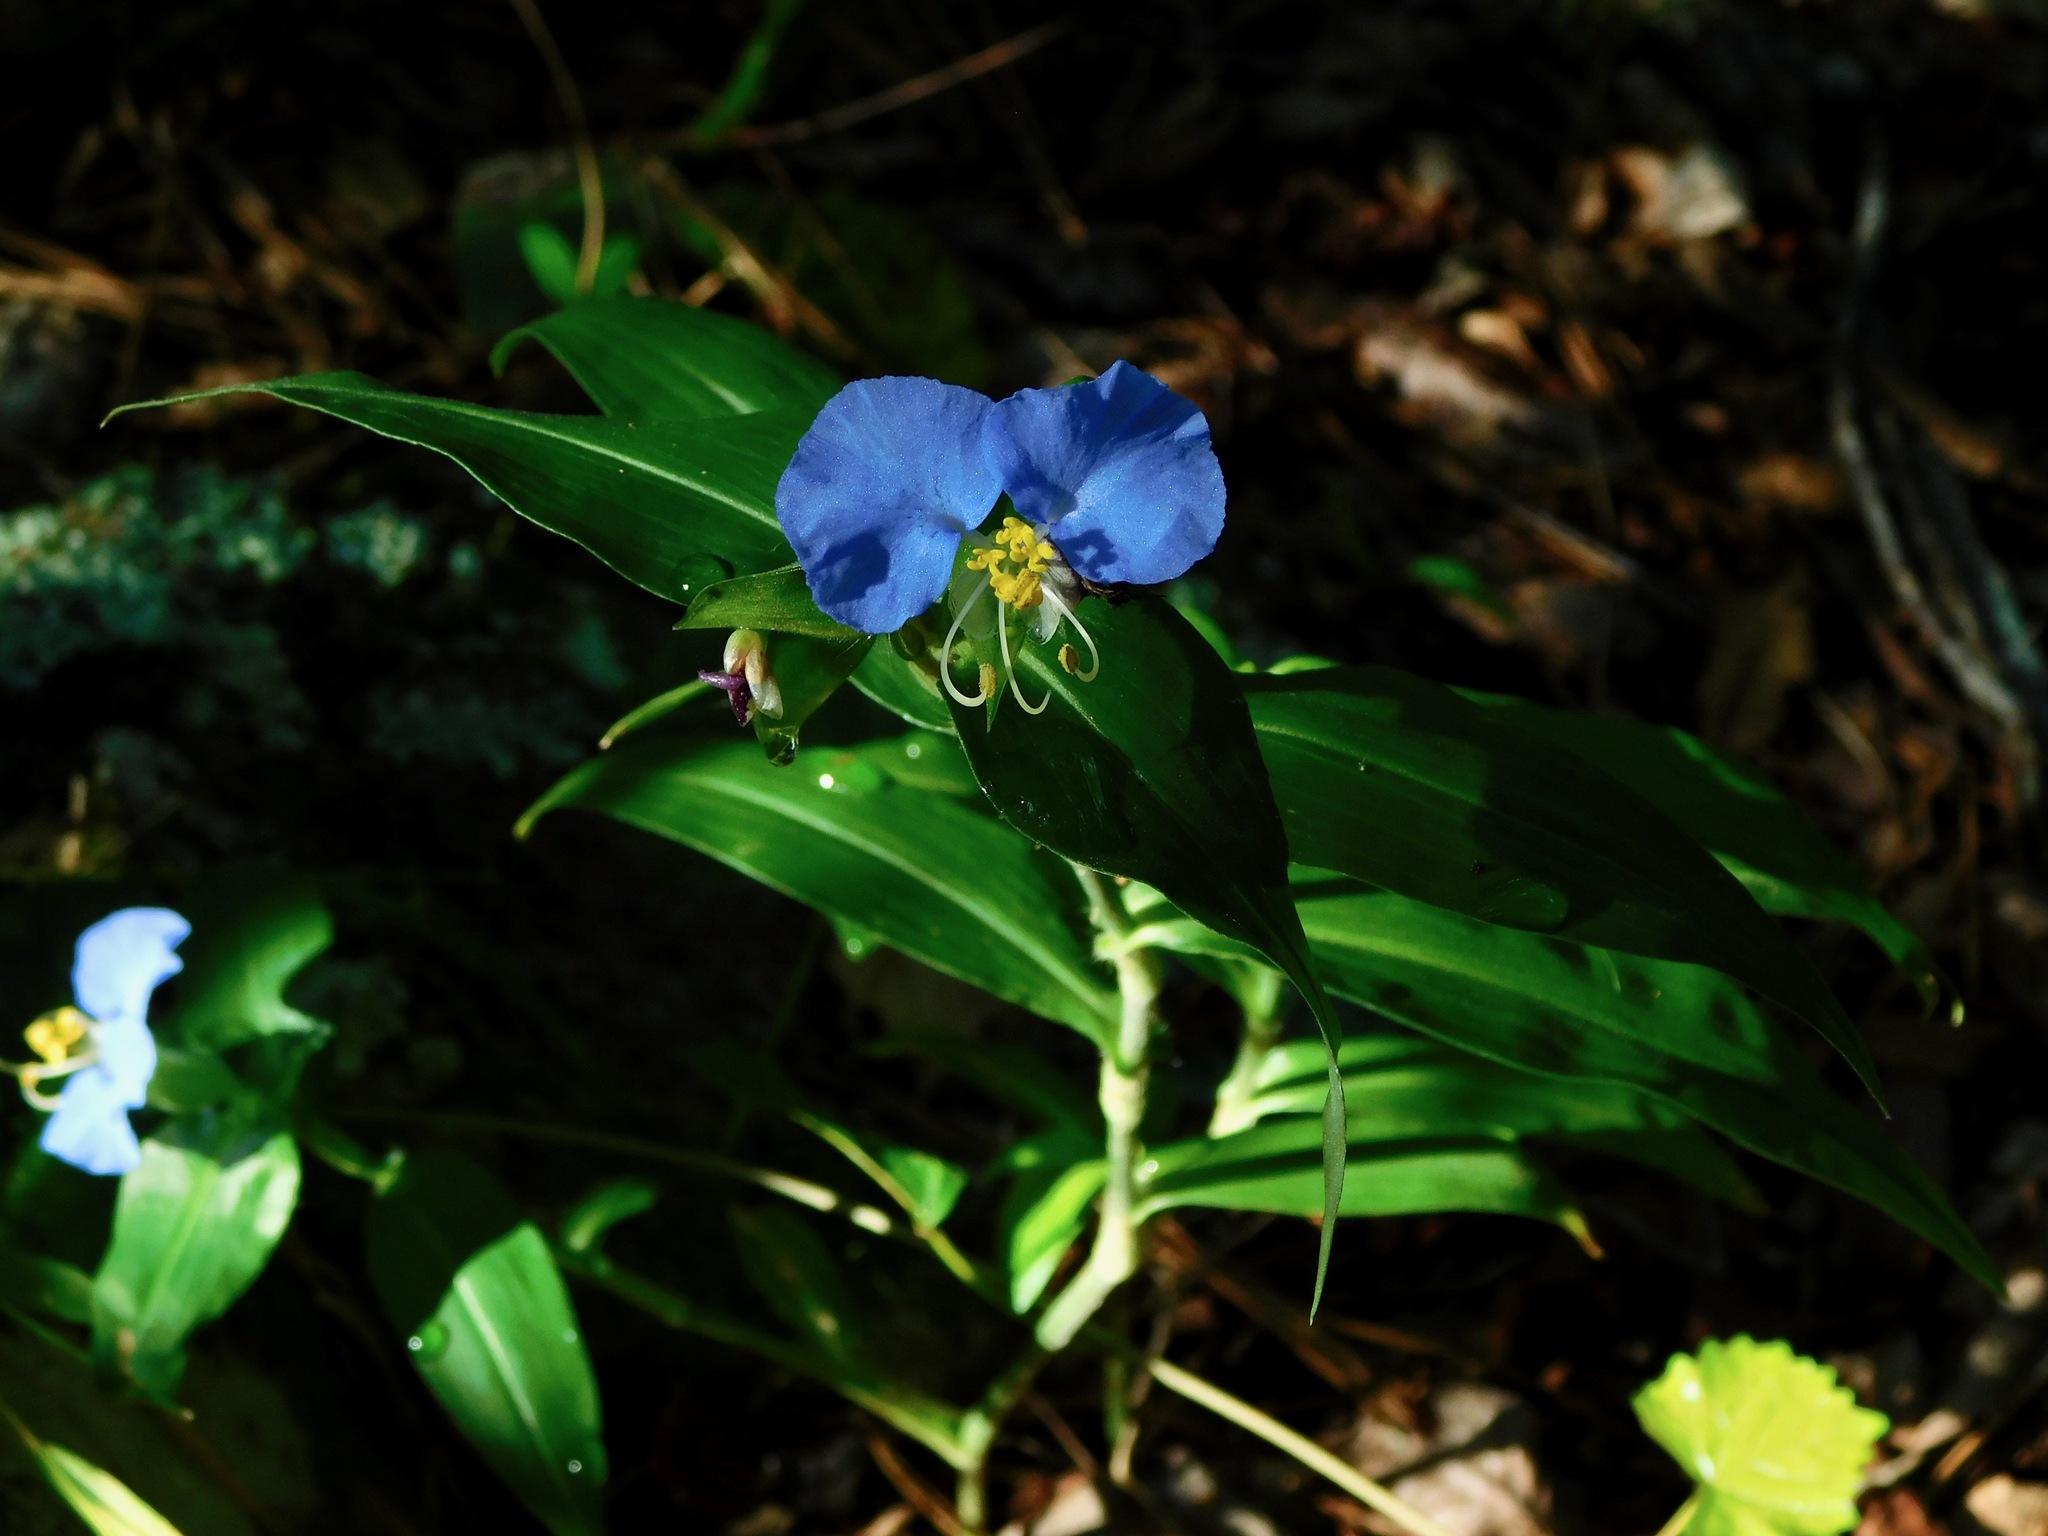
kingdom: Plantae
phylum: Tracheophyta
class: Liliopsida
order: Commelinales
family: Commelinaceae
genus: Commelina
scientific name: Commelina erecta
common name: Blousel blommetjie
